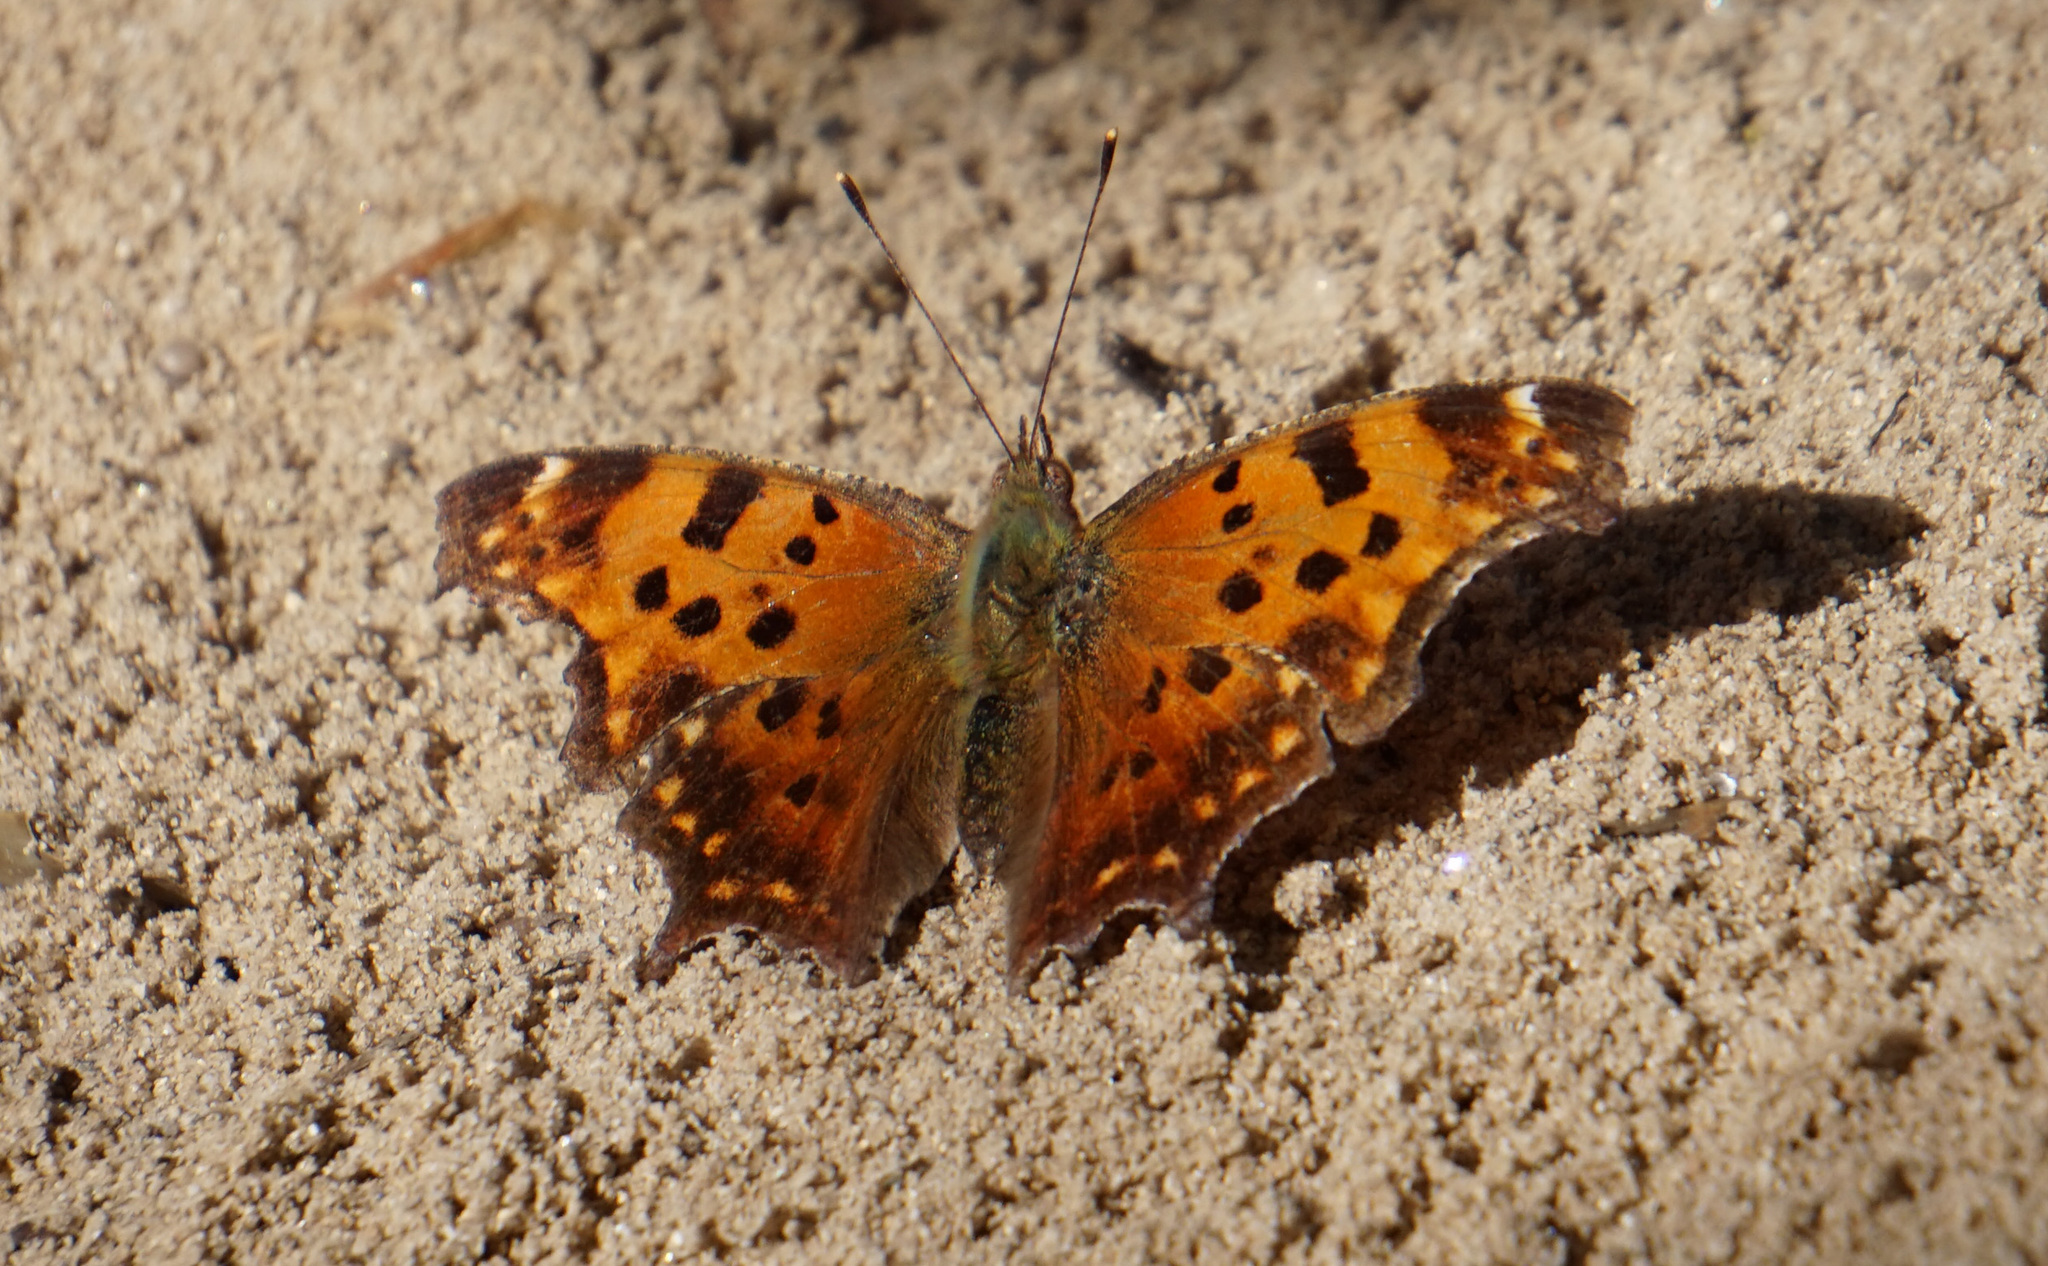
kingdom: Animalia
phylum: Arthropoda
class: Insecta
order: Lepidoptera
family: Nymphalidae
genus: Polygonia
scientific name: Polygonia comma
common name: Eastern comma
